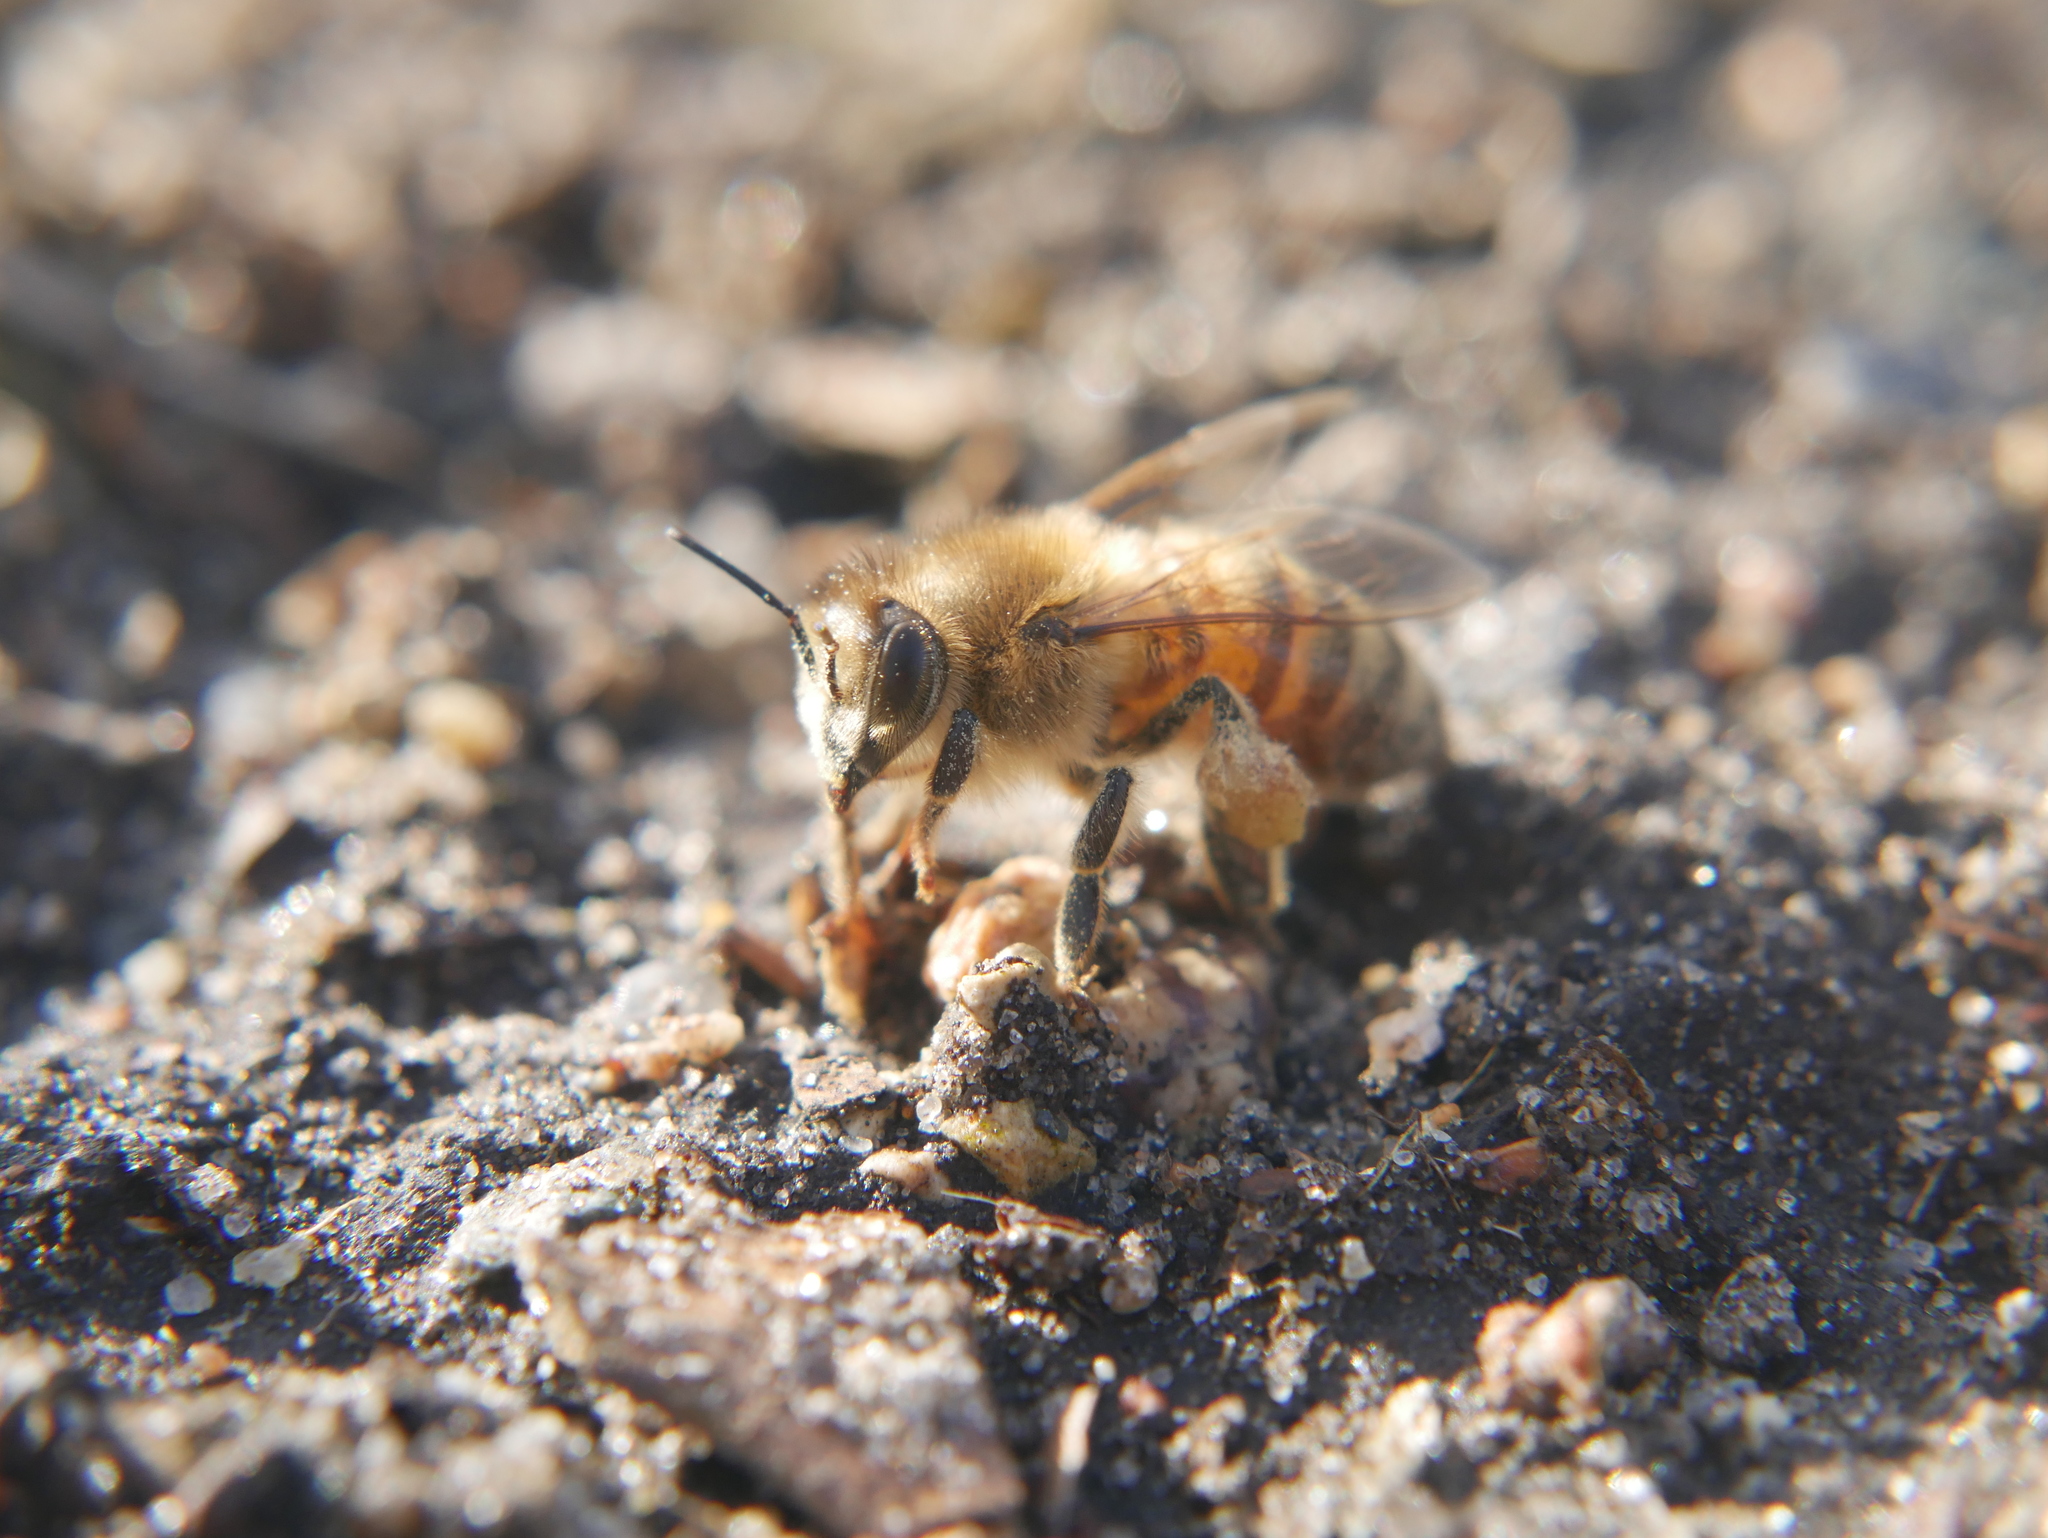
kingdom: Animalia
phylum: Arthropoda
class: Insecta
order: Hymenoptera
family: Apidae
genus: Apis
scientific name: Apis mellifera
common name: Honey bee
